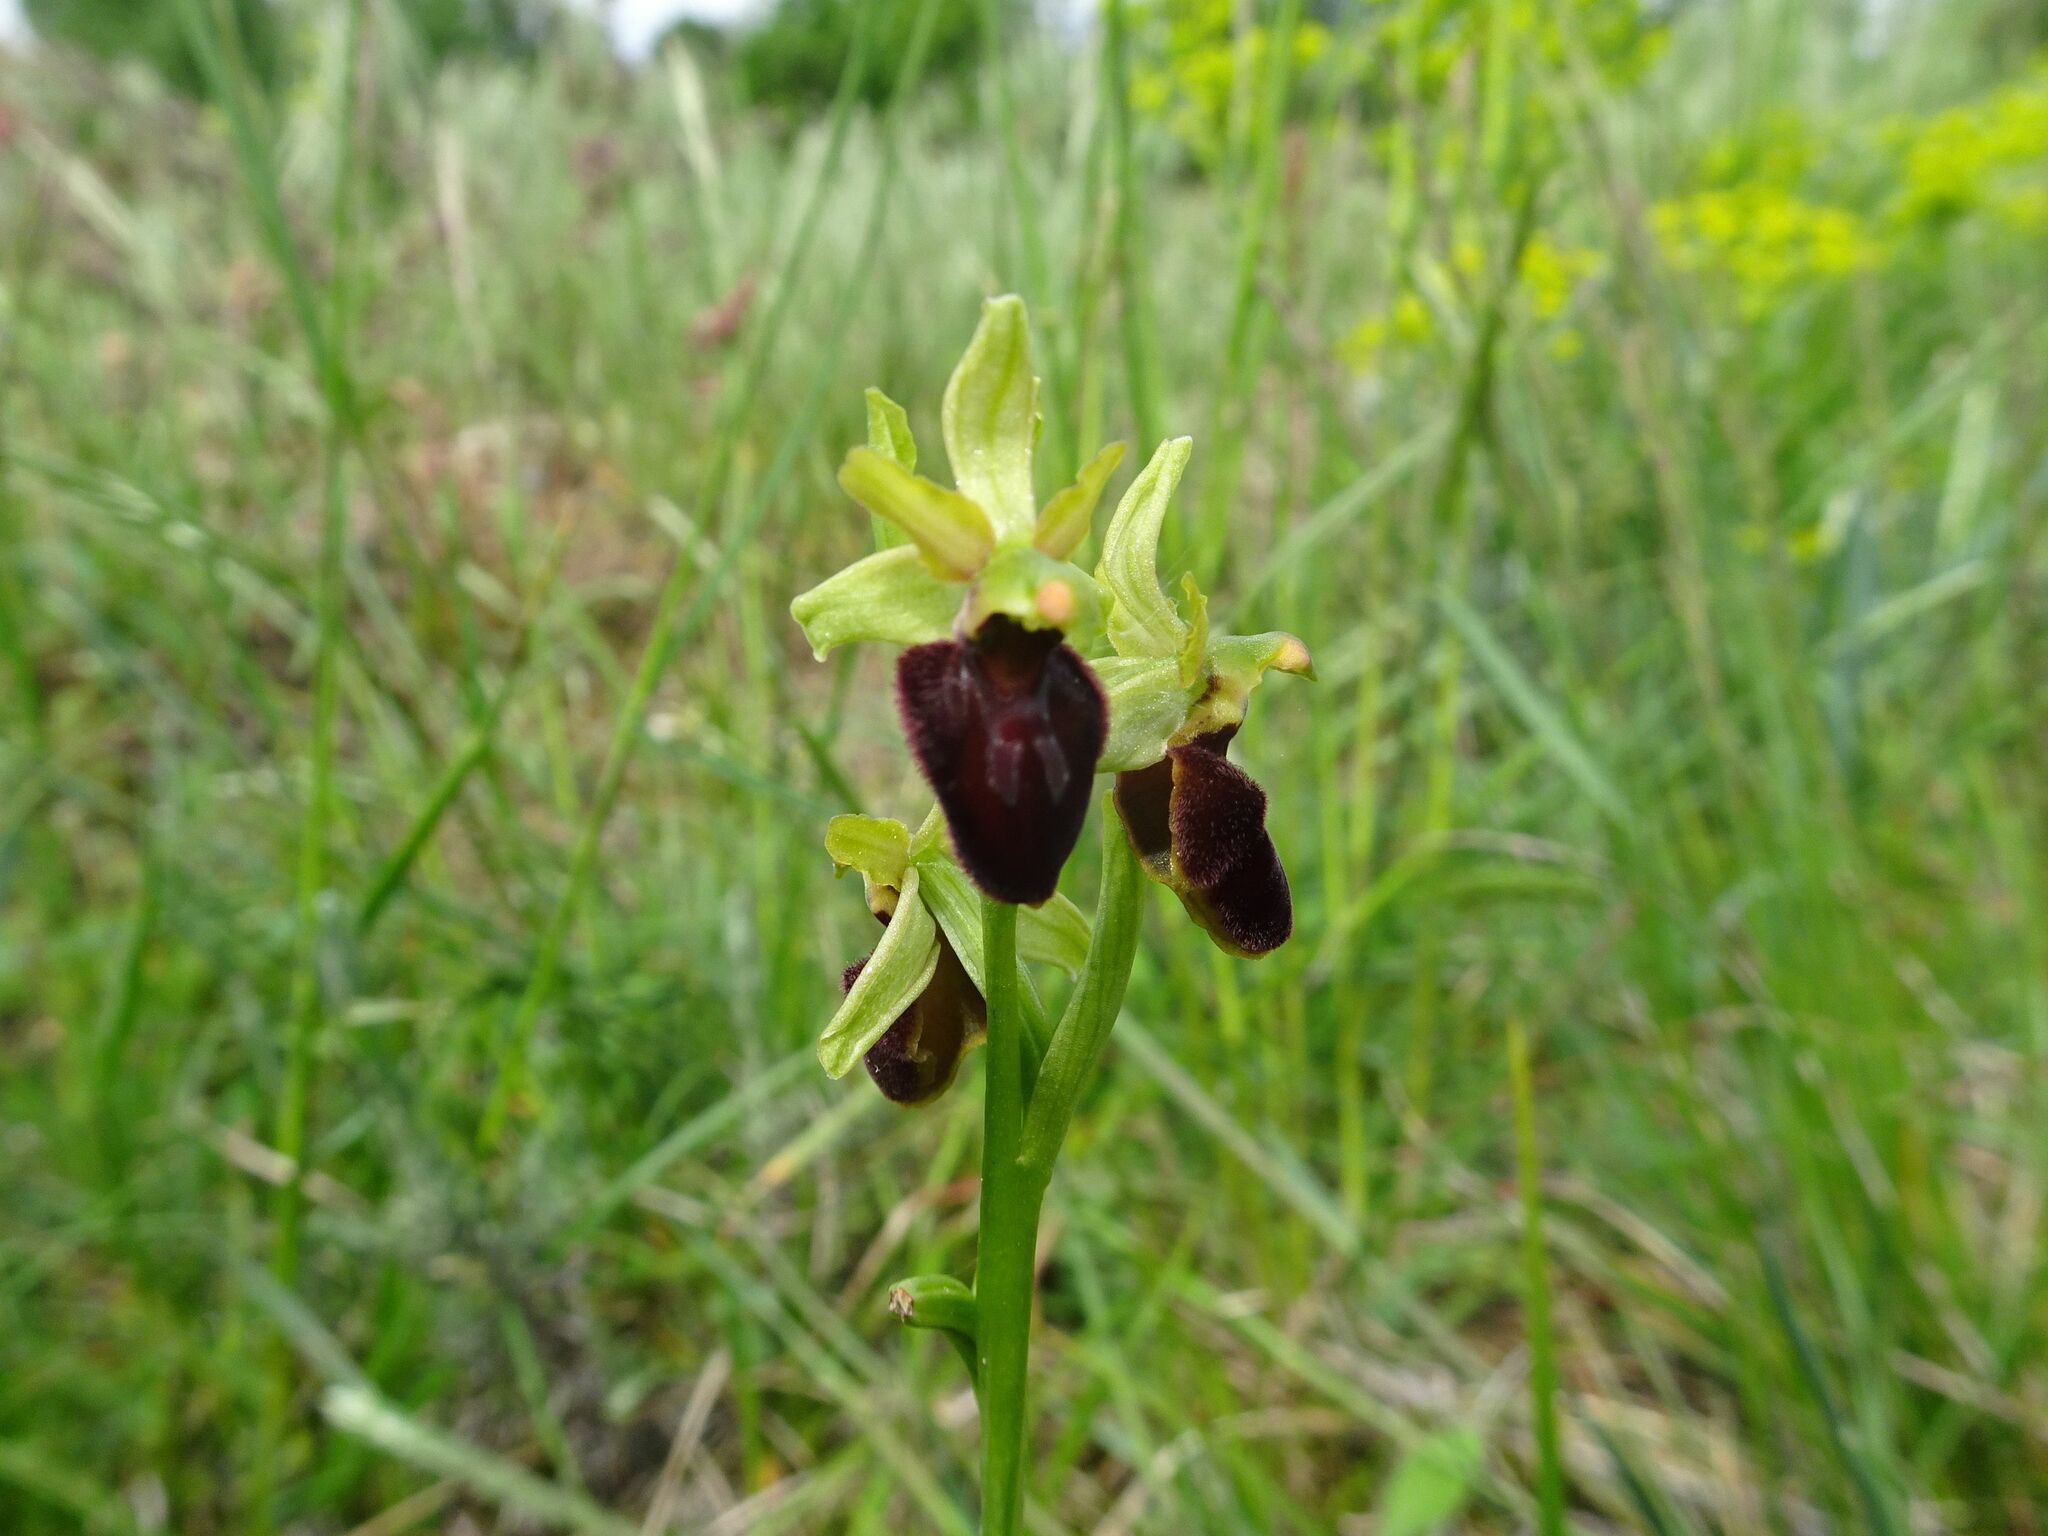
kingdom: Plantae
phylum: Tracheophyta
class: Liliopsida
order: Asparagales
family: Orchidaceae
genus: Ophrys
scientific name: Ophrys sphegodes
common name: Early spider-orchid
